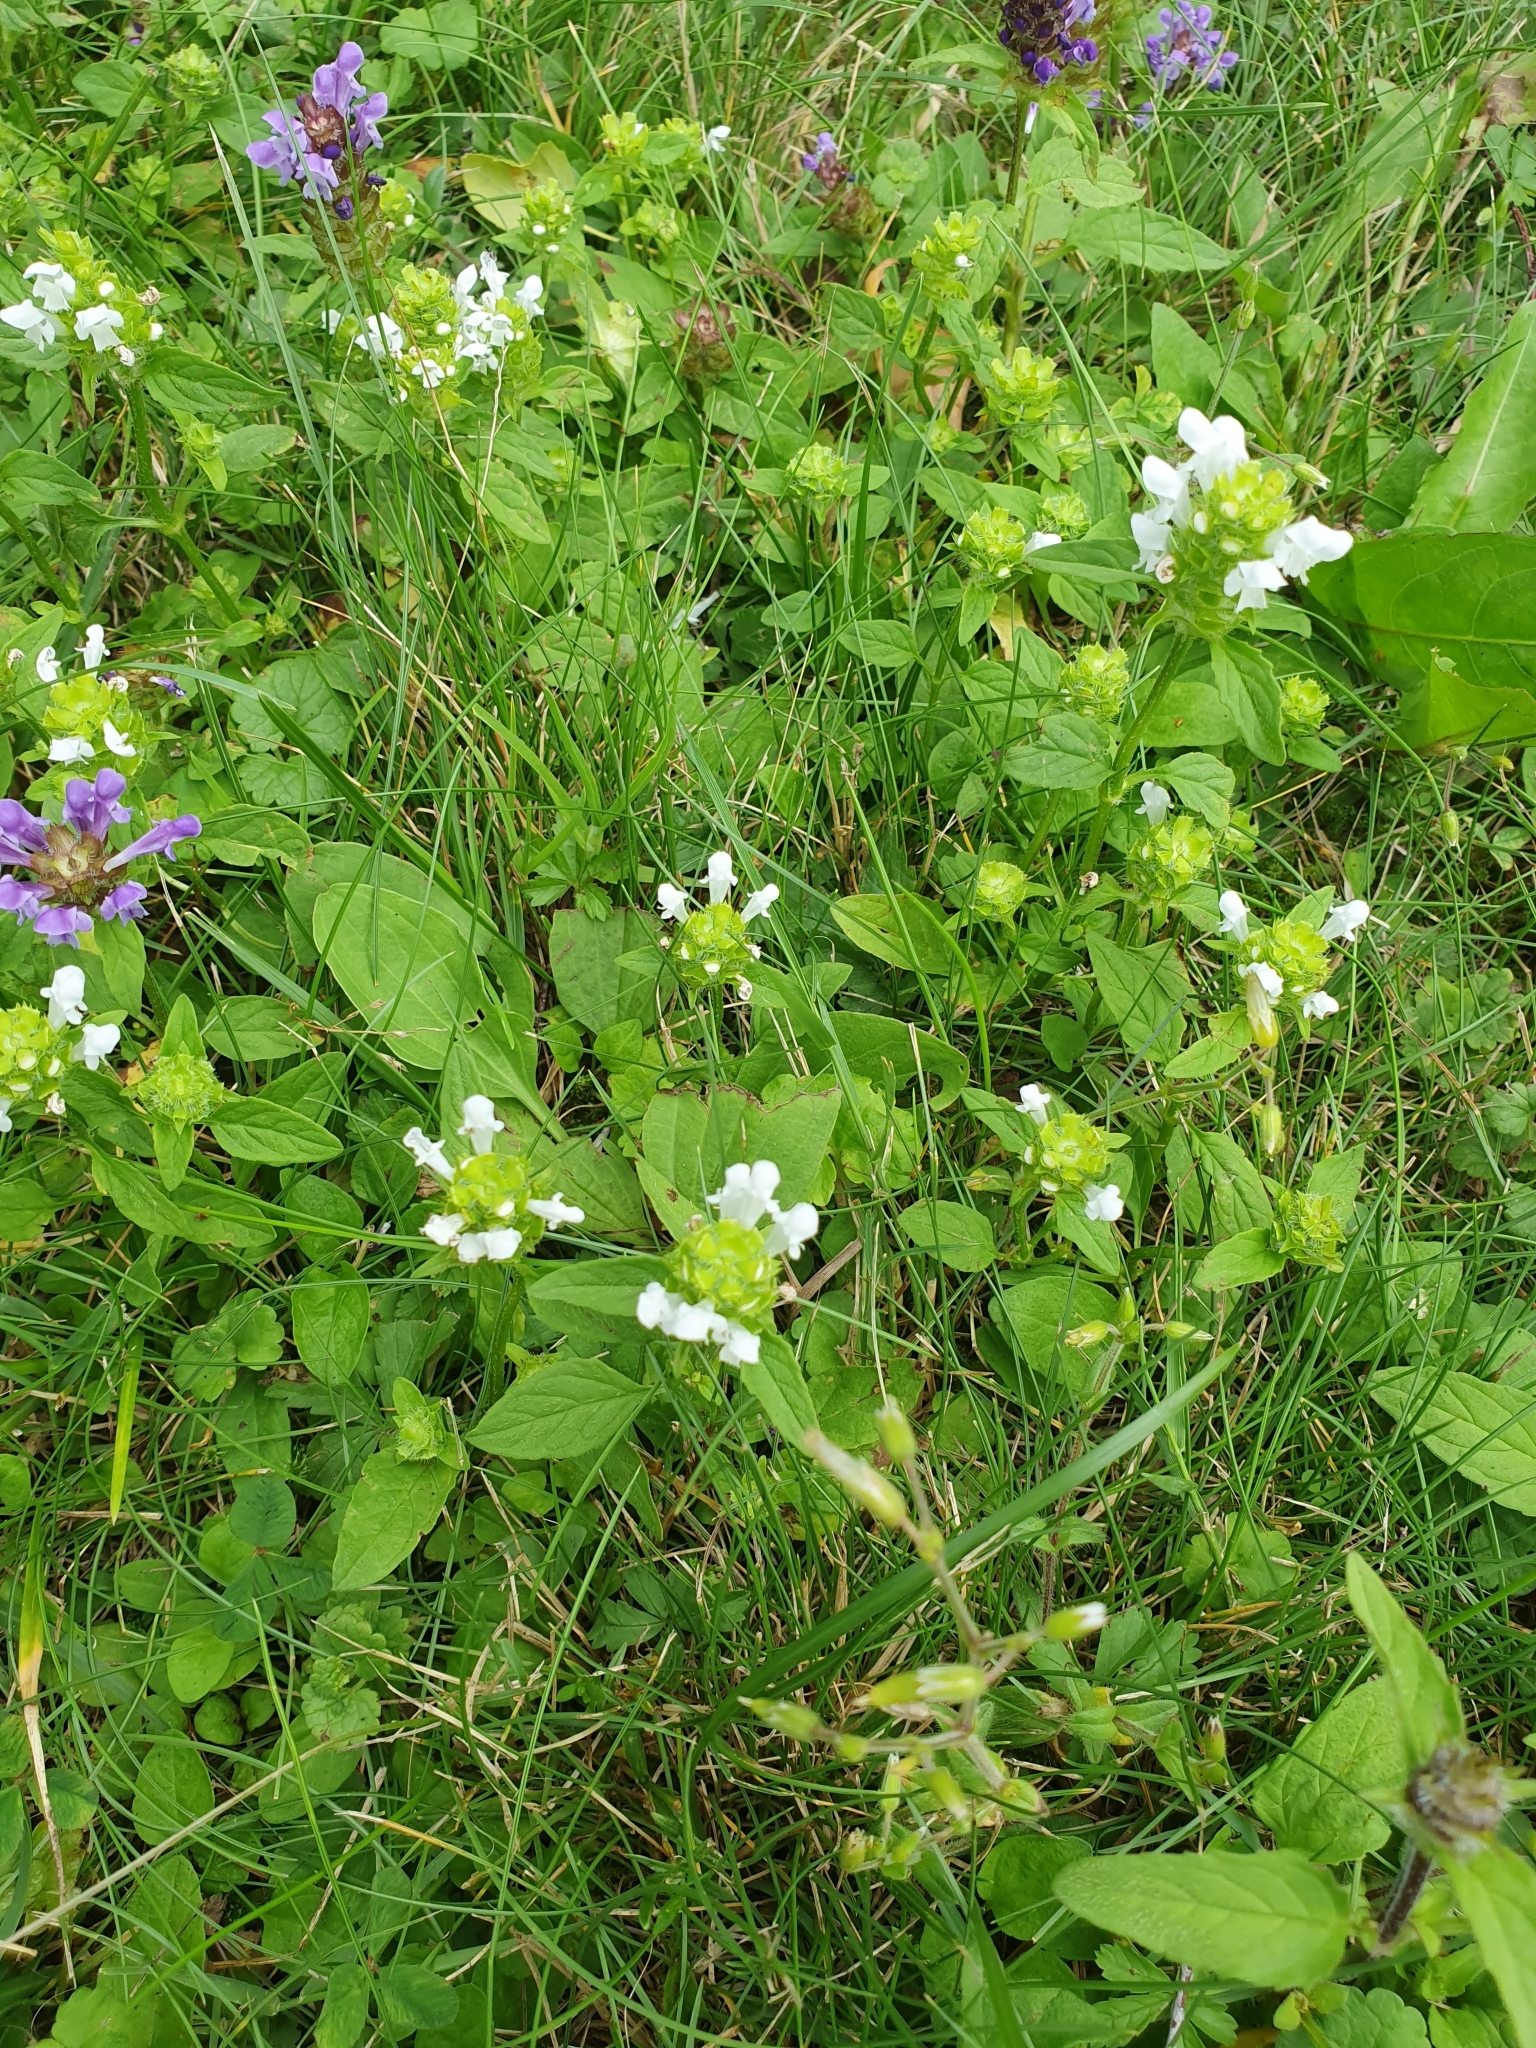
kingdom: Plantae
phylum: Tracheophyta
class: Magnoliopsida
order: Lamiales
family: Lamiaceae
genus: Prunella
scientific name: Prunella vulgaris
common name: Heal-all
